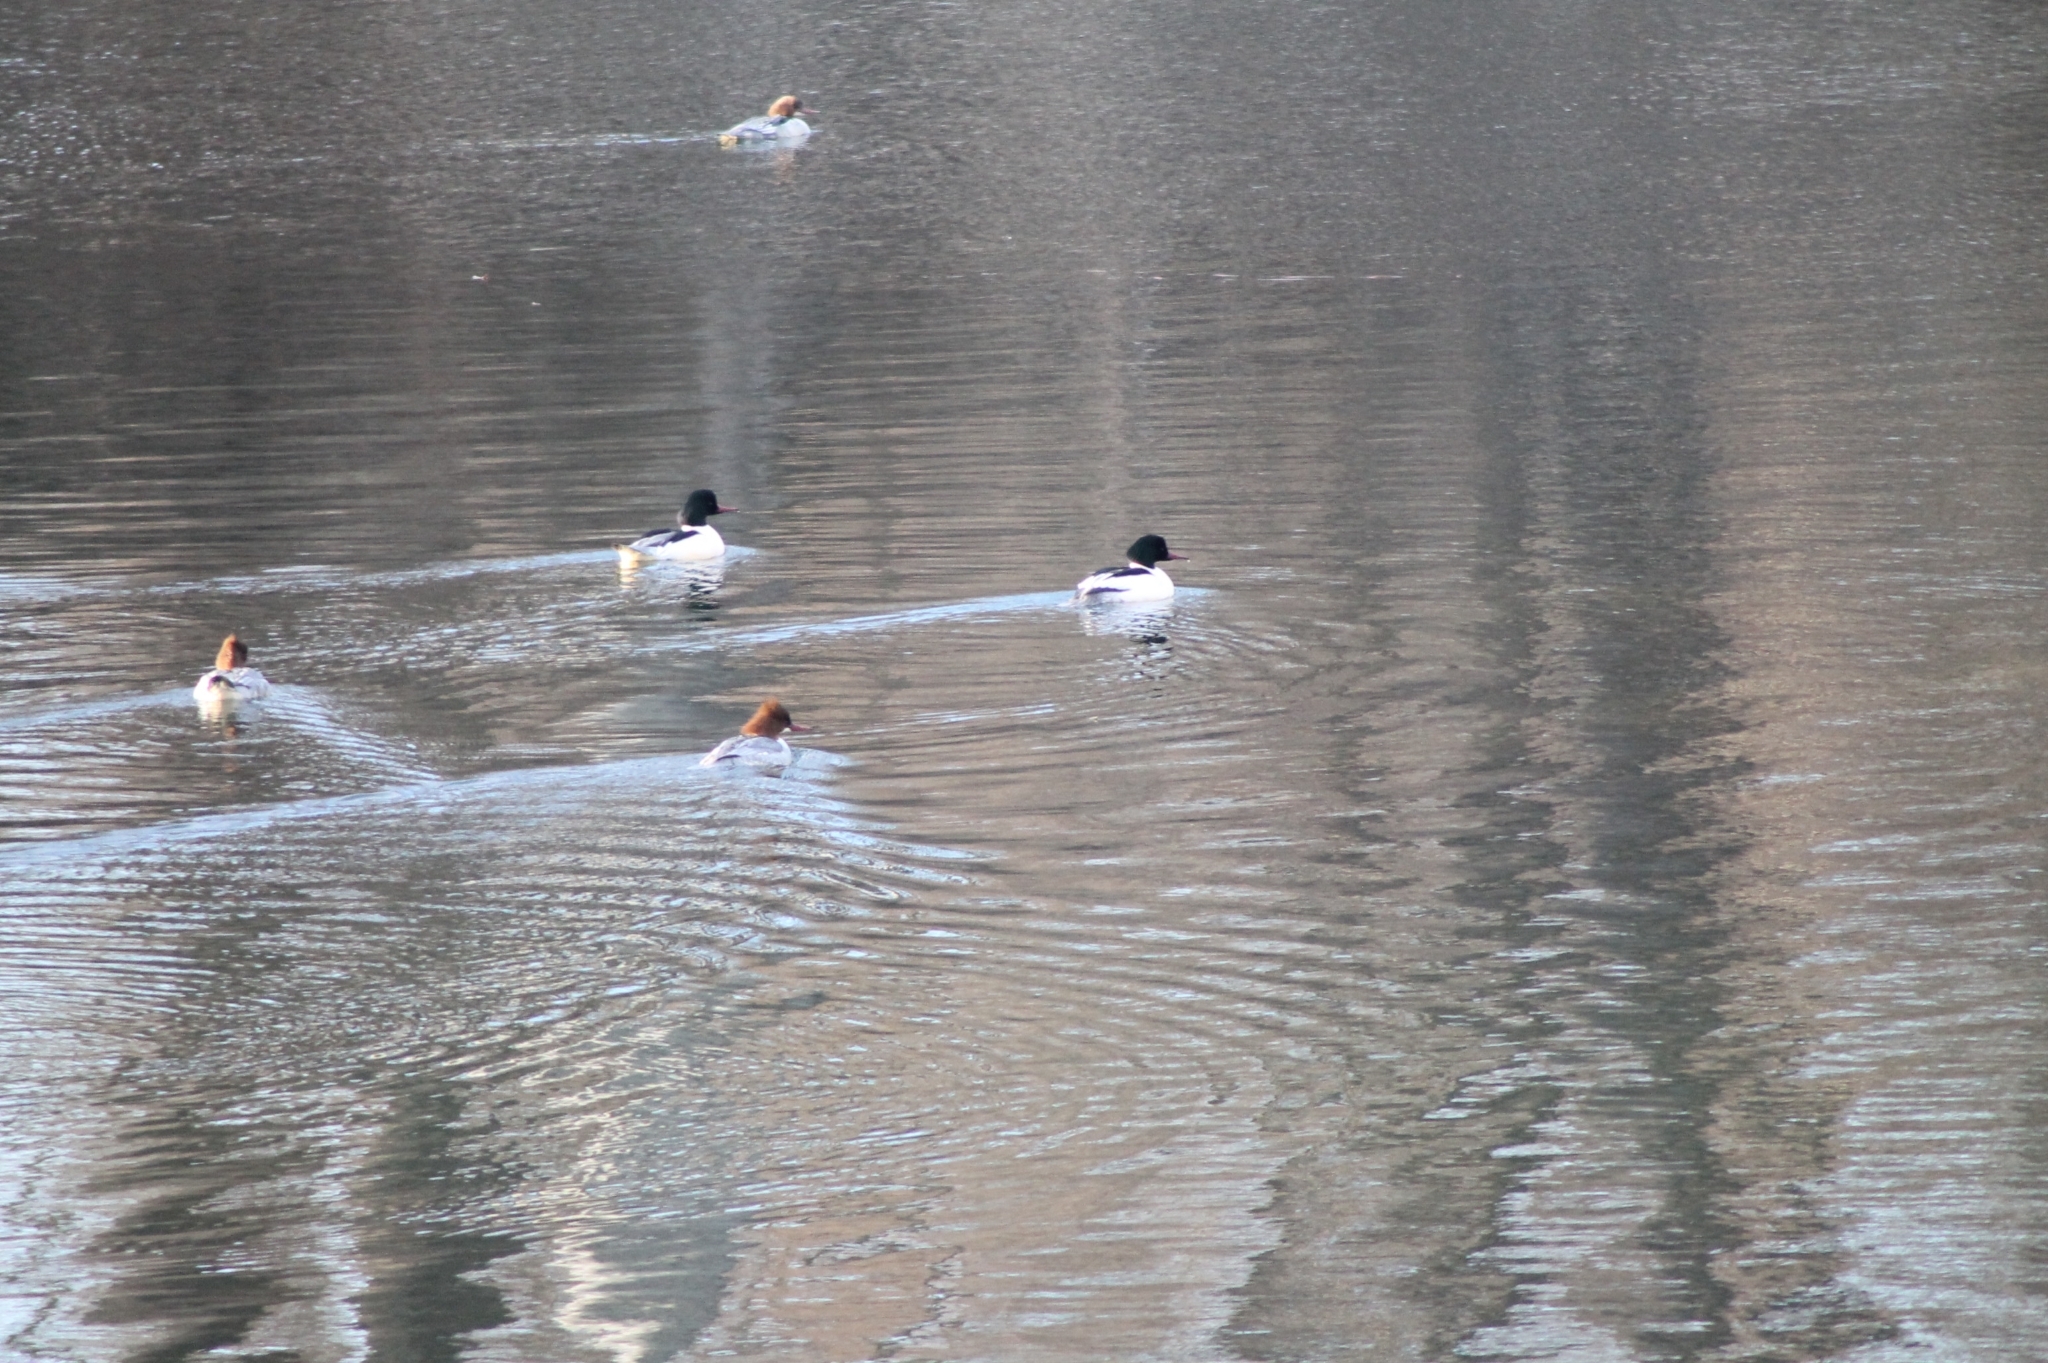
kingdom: Animalia
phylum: Chordata
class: Aves
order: Anseriformes
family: Anatidae
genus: Mergus
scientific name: Mergus merganser
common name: Common merganser
